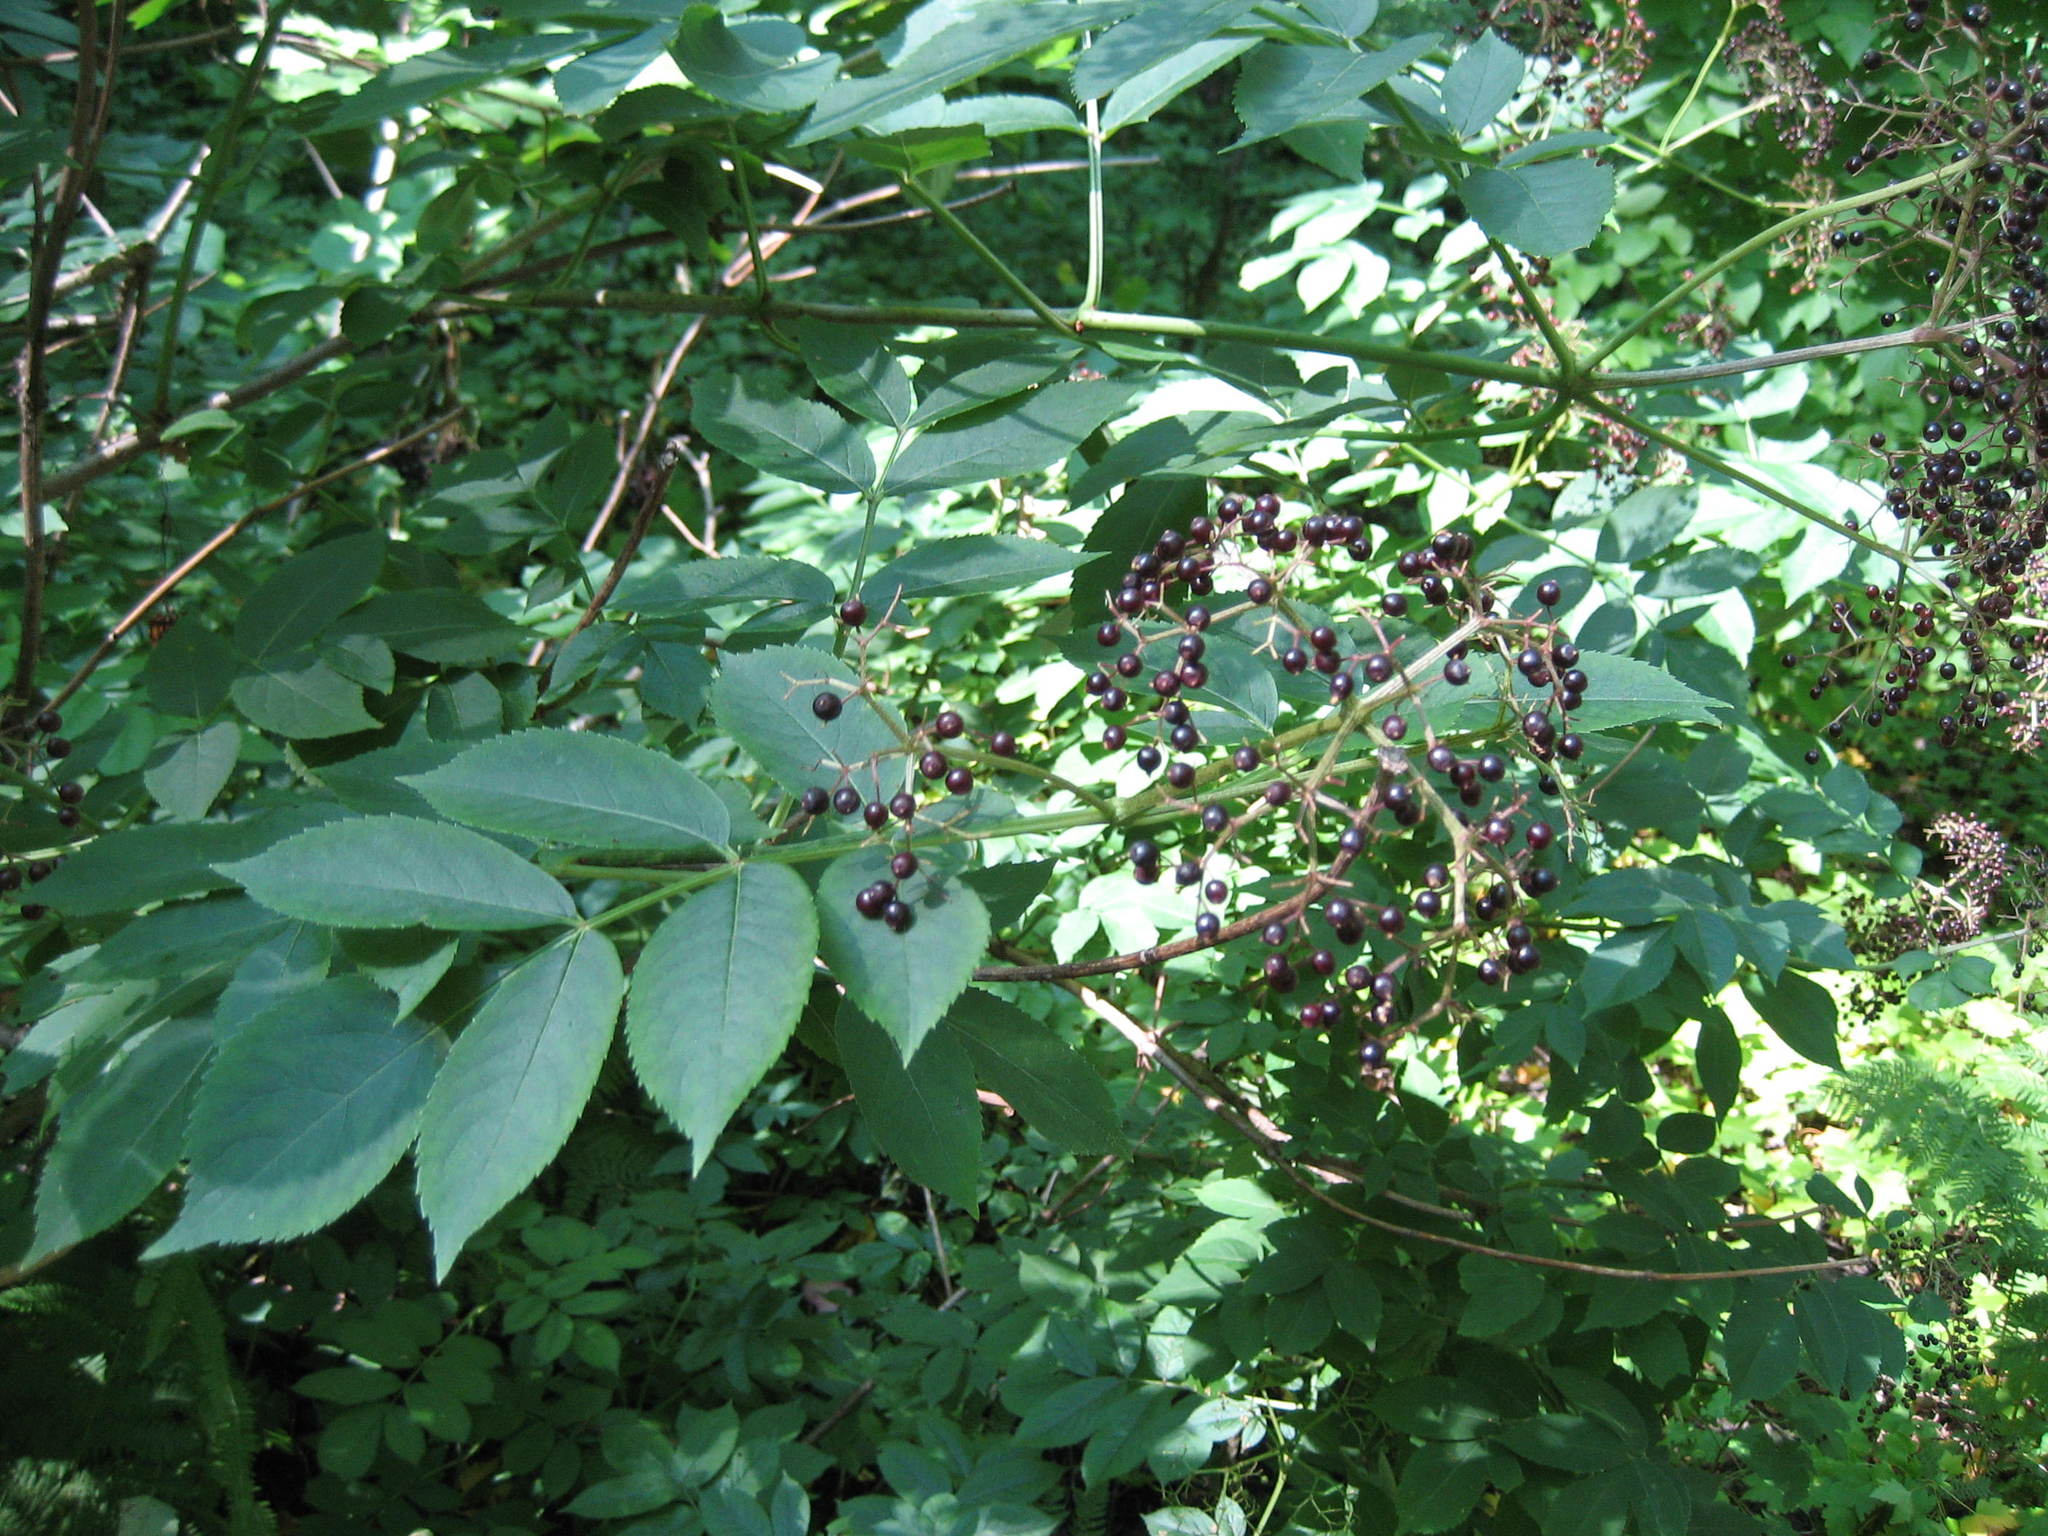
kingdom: Plantae
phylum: Tracheophyta
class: Magnoliopsida
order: Dipsacales
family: Viburnaceae
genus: Sambucus
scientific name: Sambucus canadensis
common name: American elder
